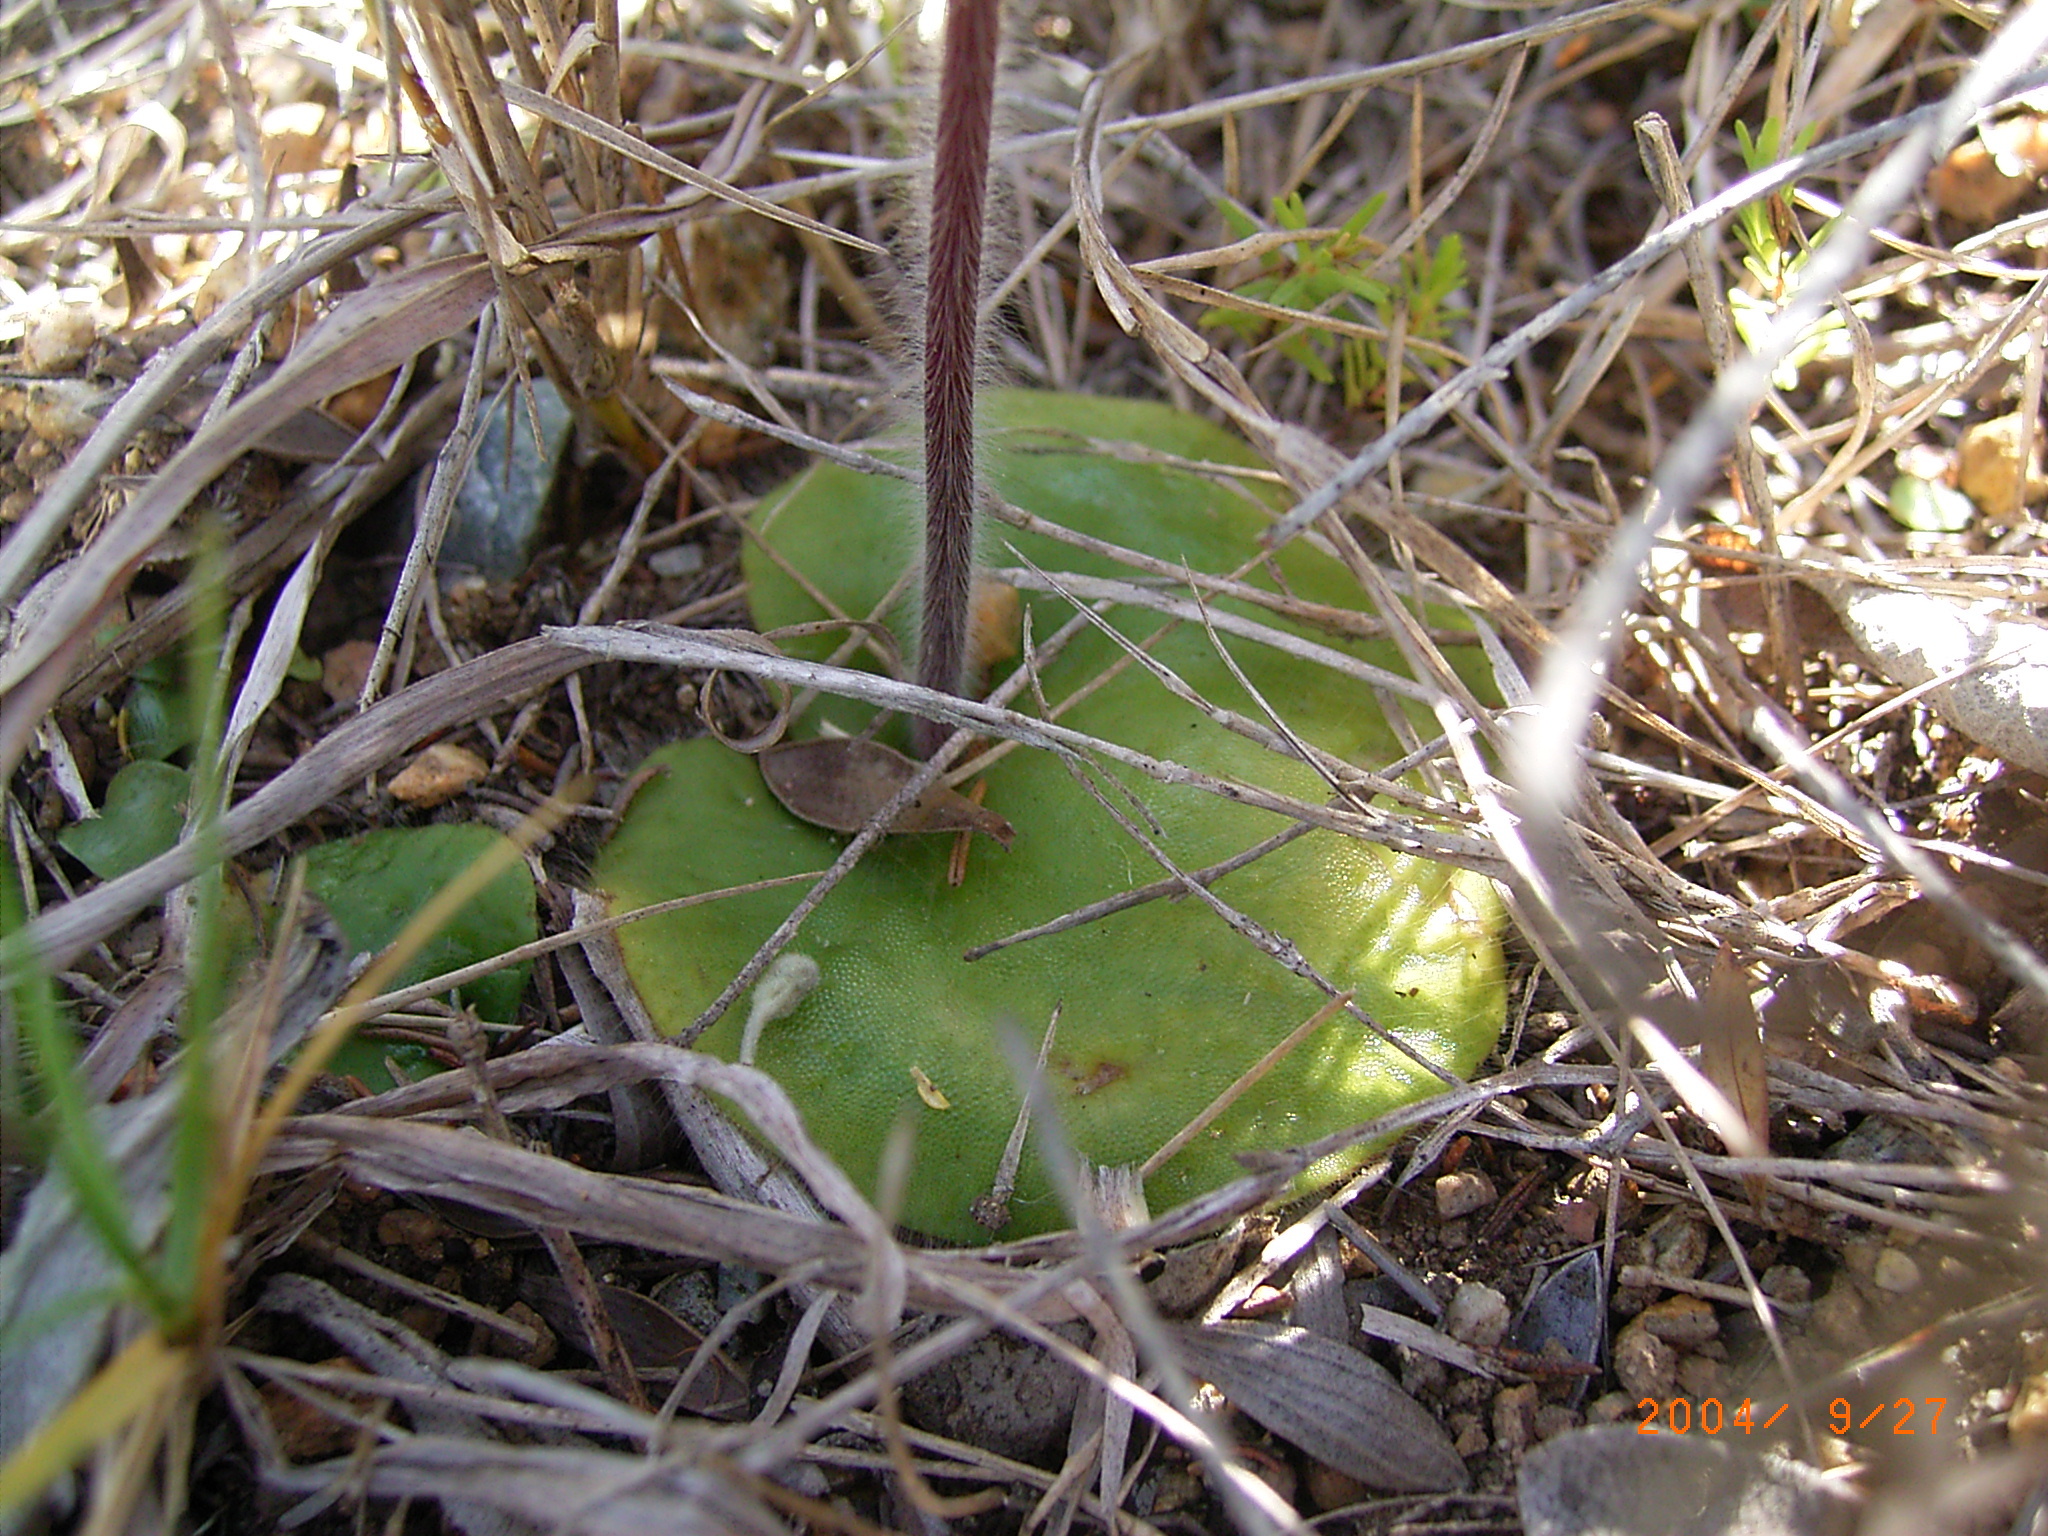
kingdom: Plantae
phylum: Tracheophyta
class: Liliopsida
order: Asparagales
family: Orchidaceae
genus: Holothrix
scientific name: Holothrix villosa
